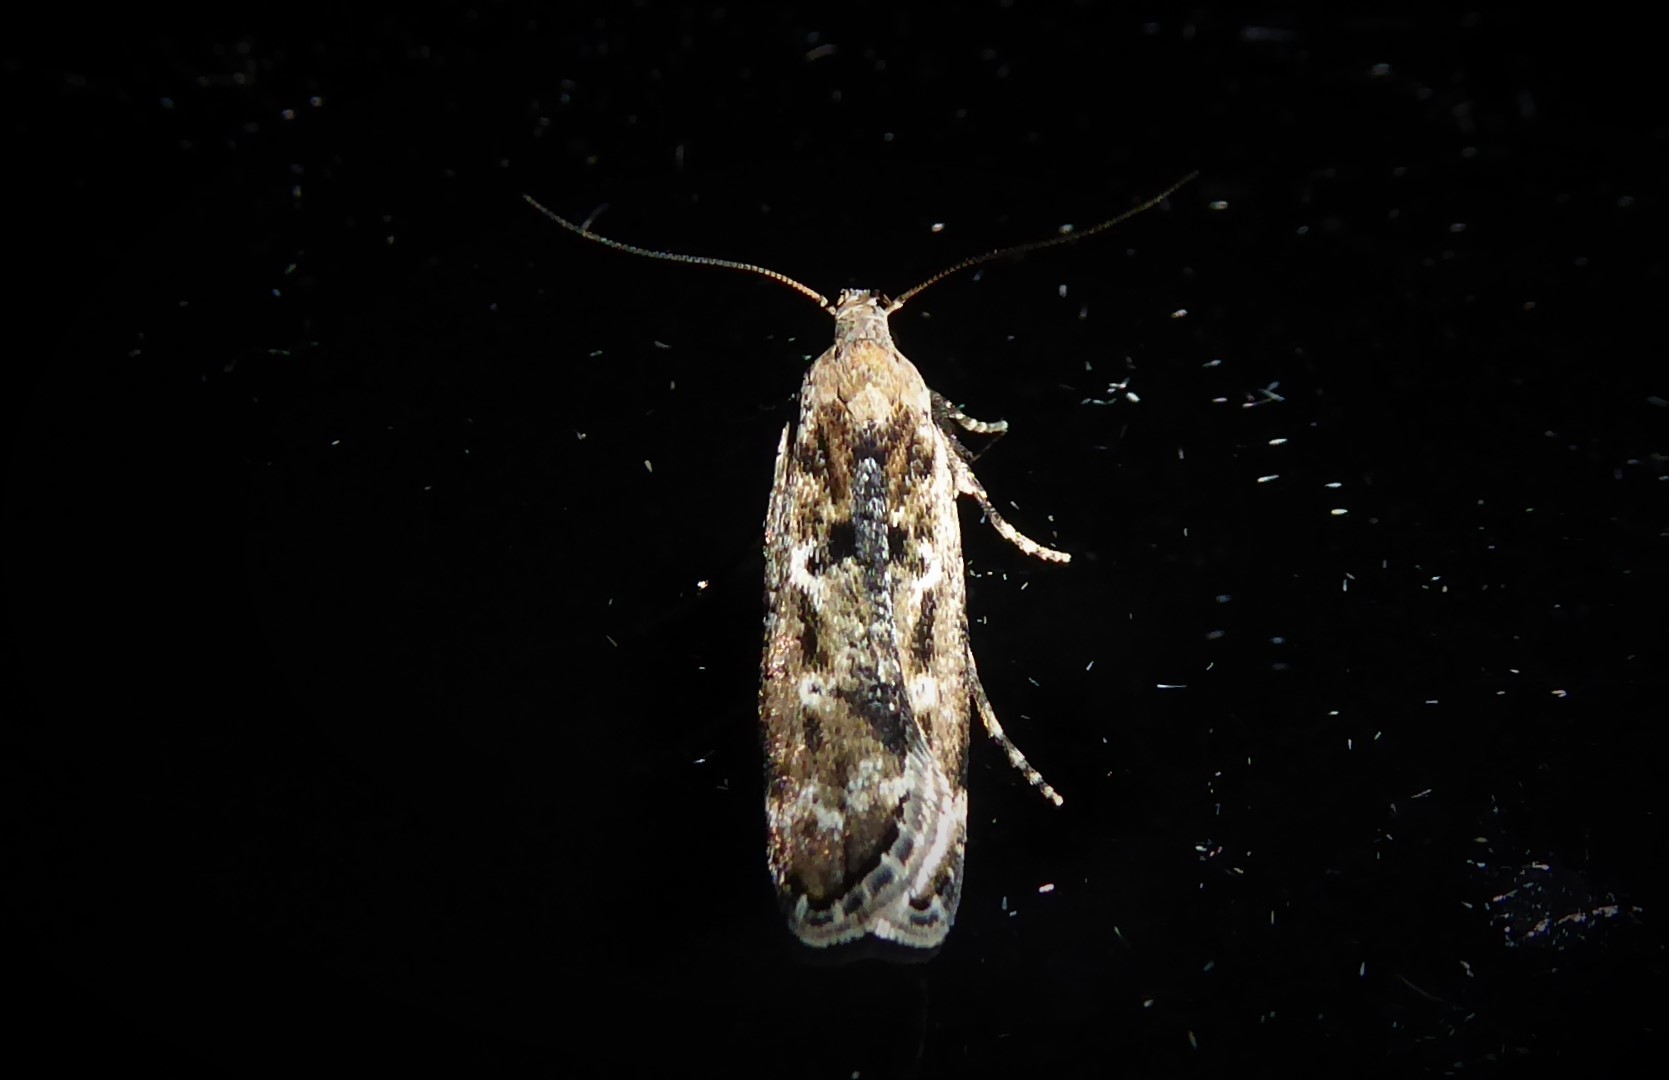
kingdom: Animalia
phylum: Arthropoda
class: Insecta
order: Lepidoptera
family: Gelechiidae
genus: Anisoplaca
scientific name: Anisoplaca achyrota
